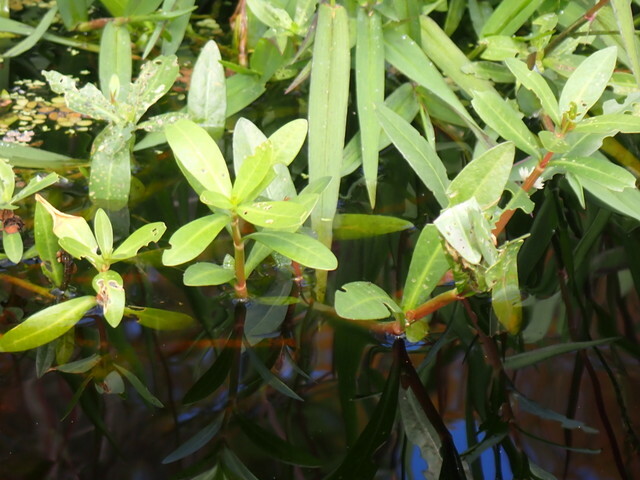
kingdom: Plantae
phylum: Tracheophyta
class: Magnoliopsida
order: Caryophyllales
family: Amaranthaceae
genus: Alternanthera
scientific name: Alternanthera philoxeroides
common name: Alligatorweed
